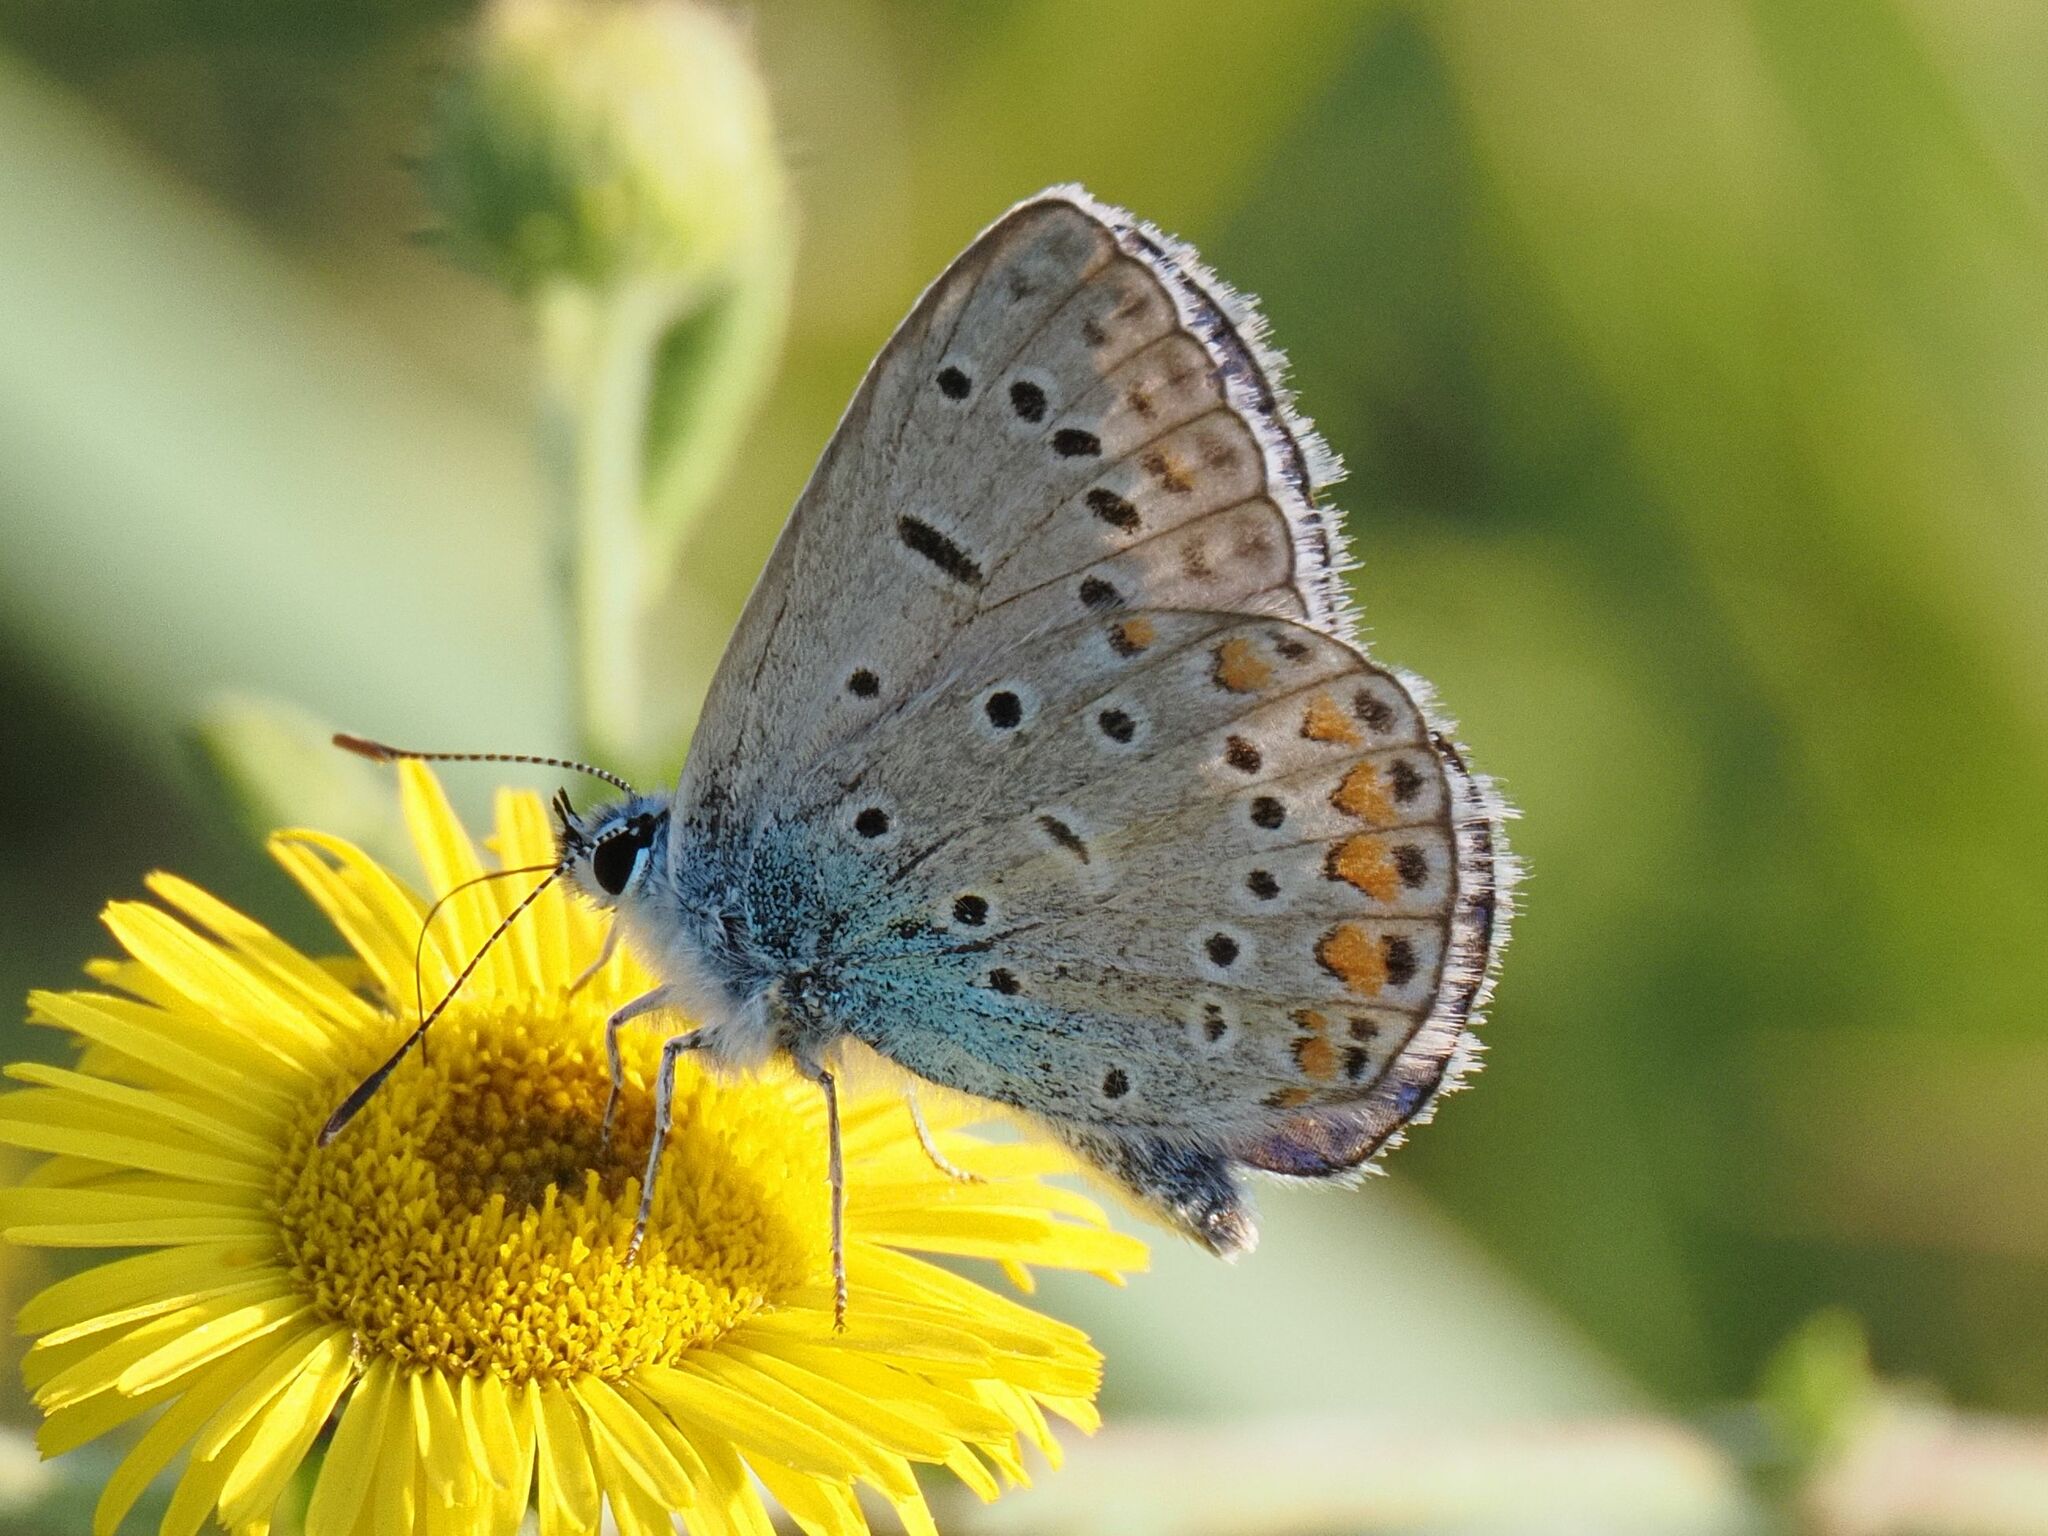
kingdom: Animalia
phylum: Arthropoda
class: Insecta
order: Lepidoptera
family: Lycaenidae
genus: Polyommatus
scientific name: Polyommatus icarus
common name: Common blue
